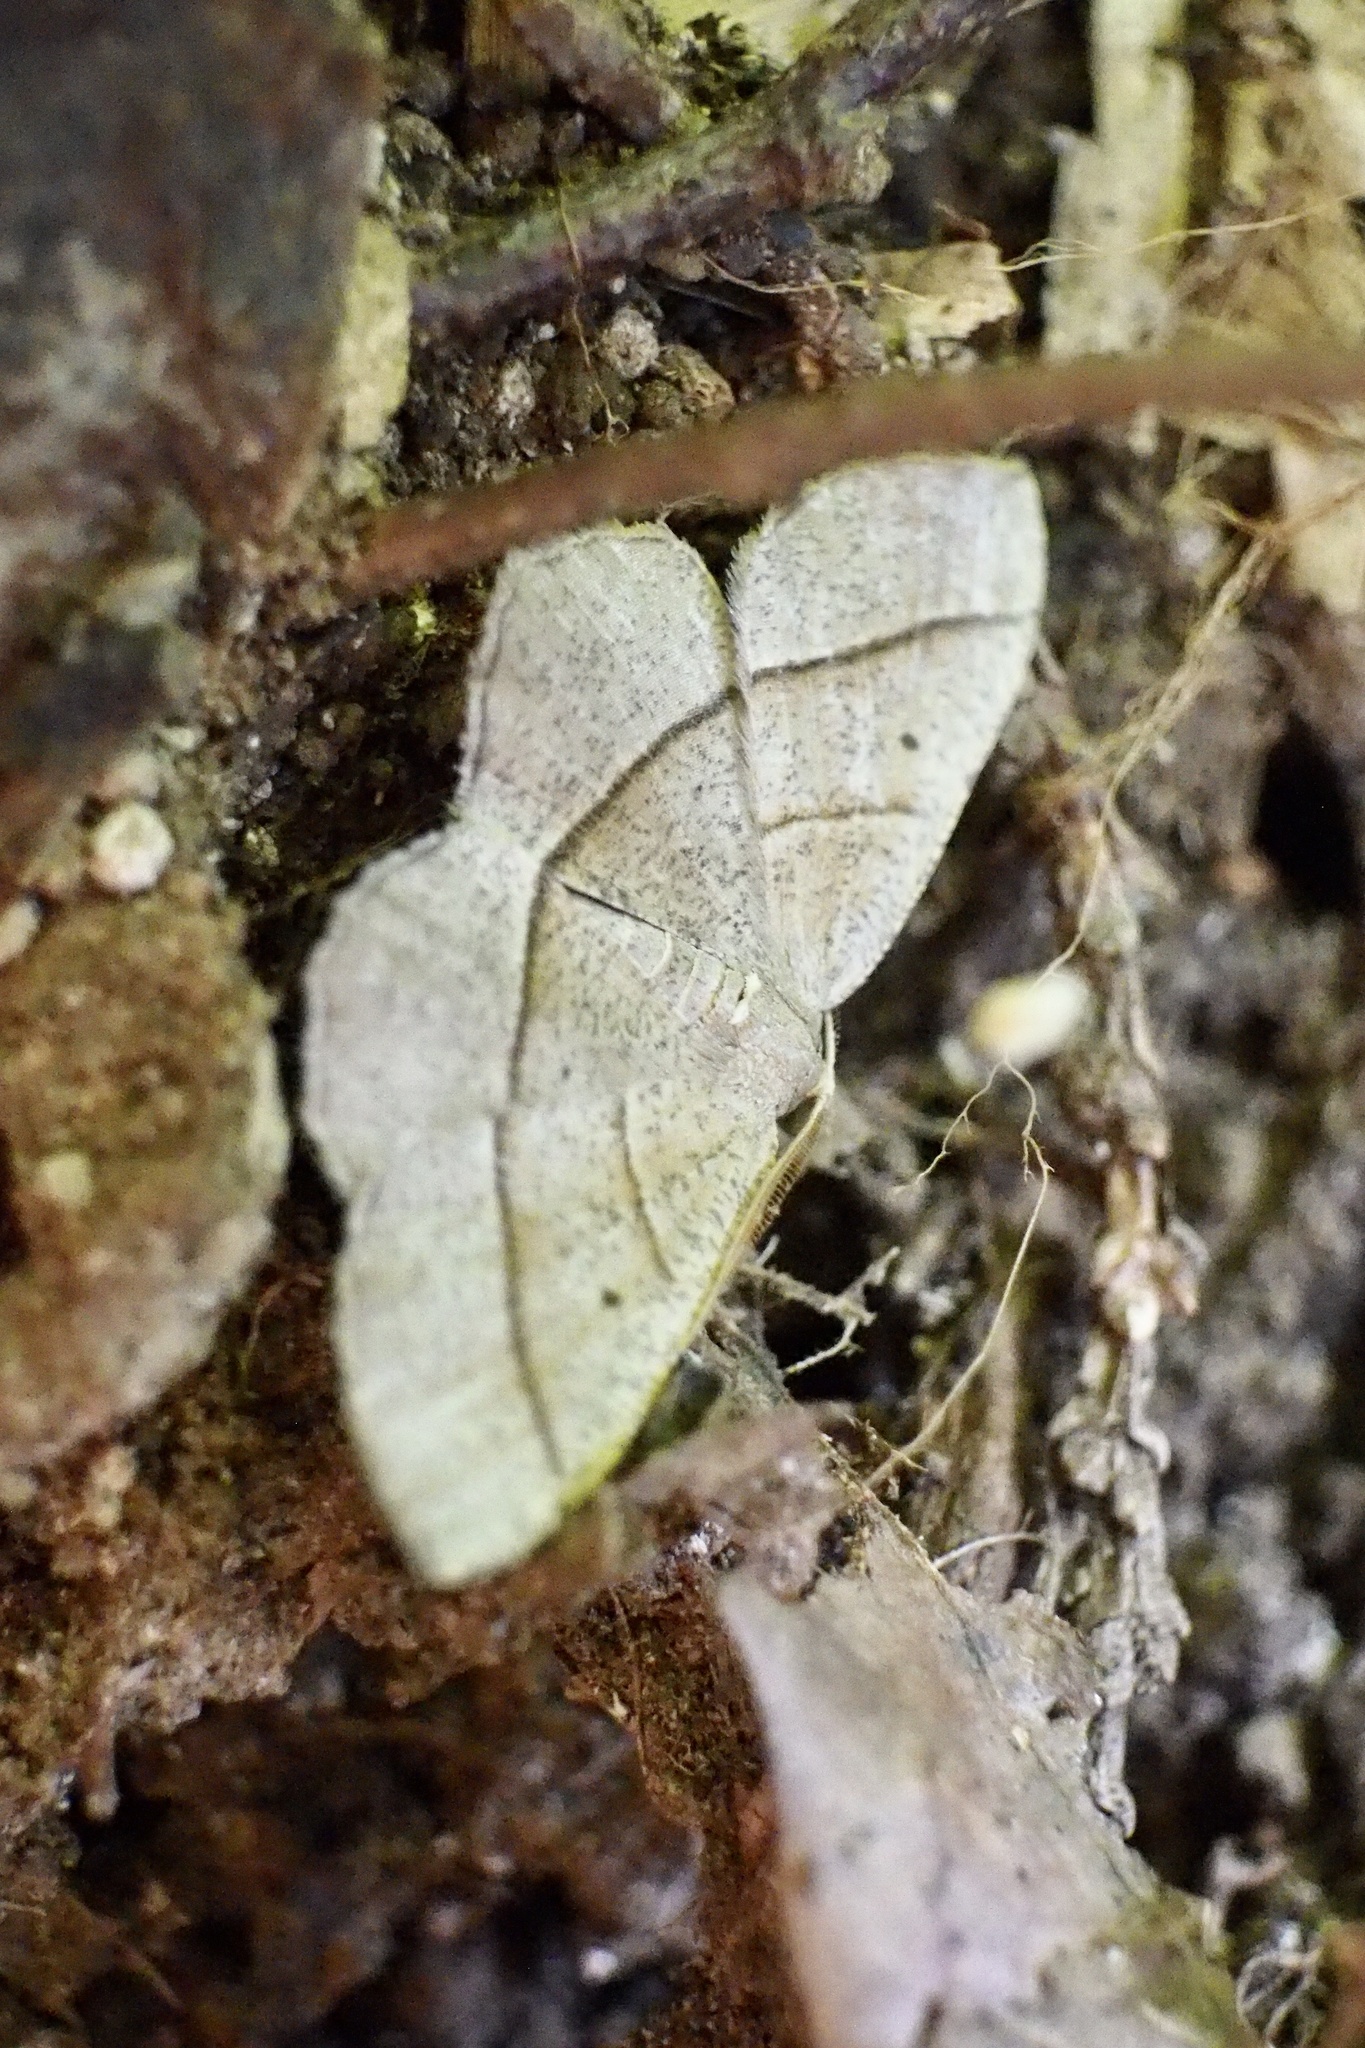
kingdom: Animalia
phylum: Arthropoda
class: Insecta
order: Lepidoptera
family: Geometridae
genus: Rhynchobapta
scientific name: Rhynchobapta cervinaria
